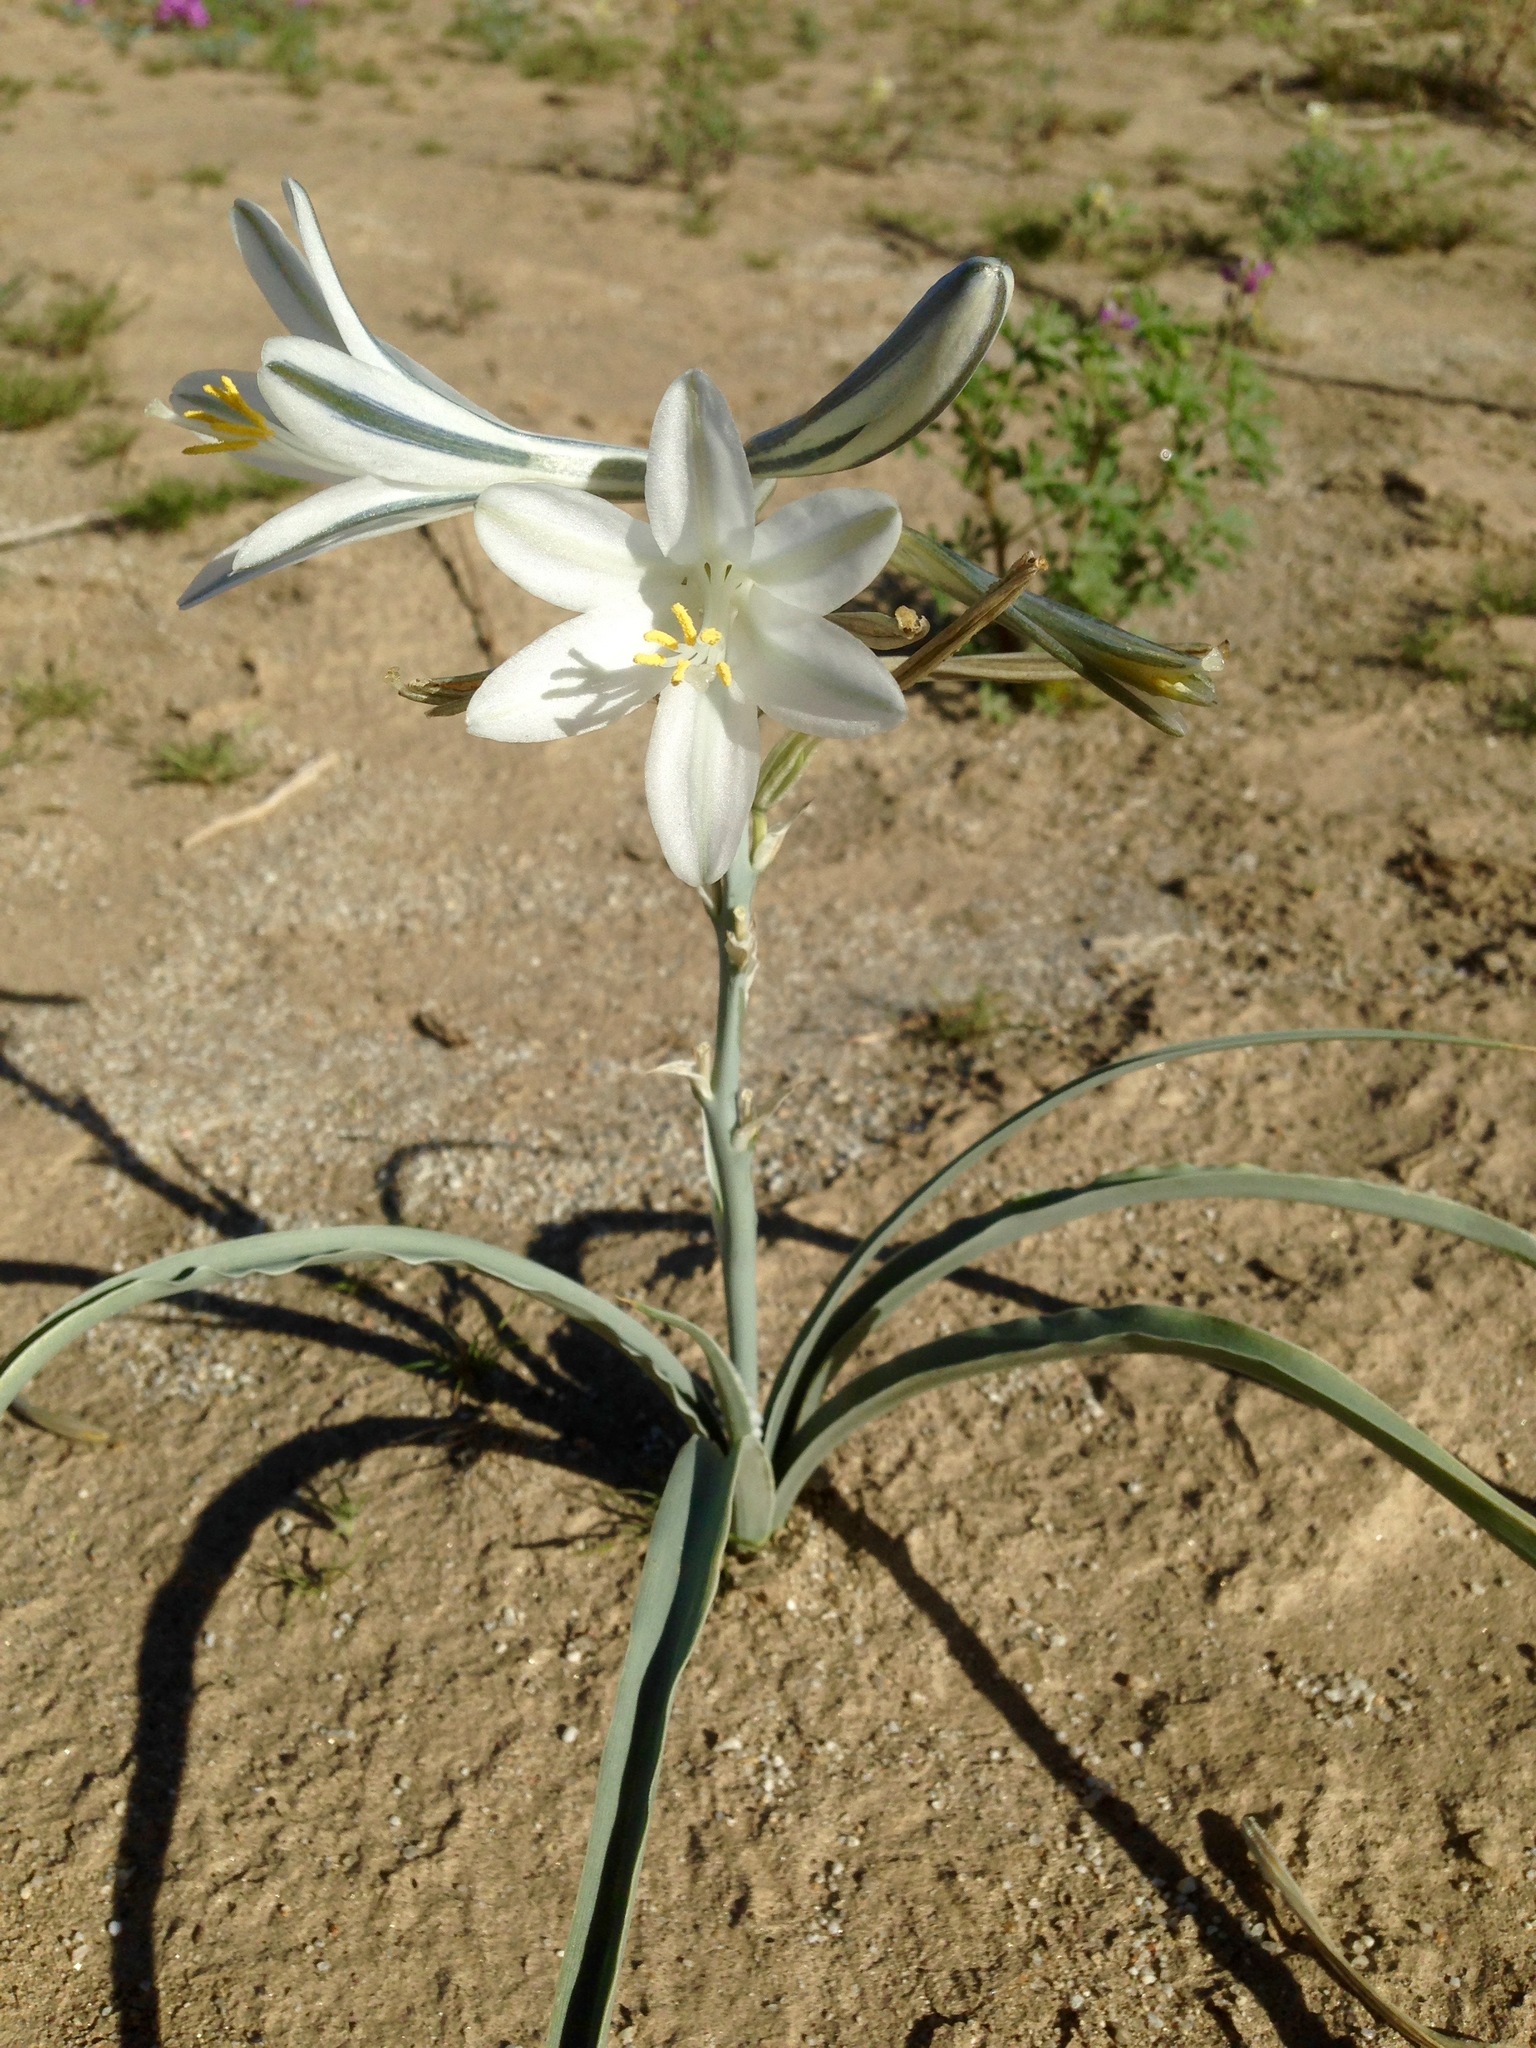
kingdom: Plantae
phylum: Tracheophyta
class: Liliopsida
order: Asparagales
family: Asparagaceae
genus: Hesperocallis
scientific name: Hesperocallis undulata
